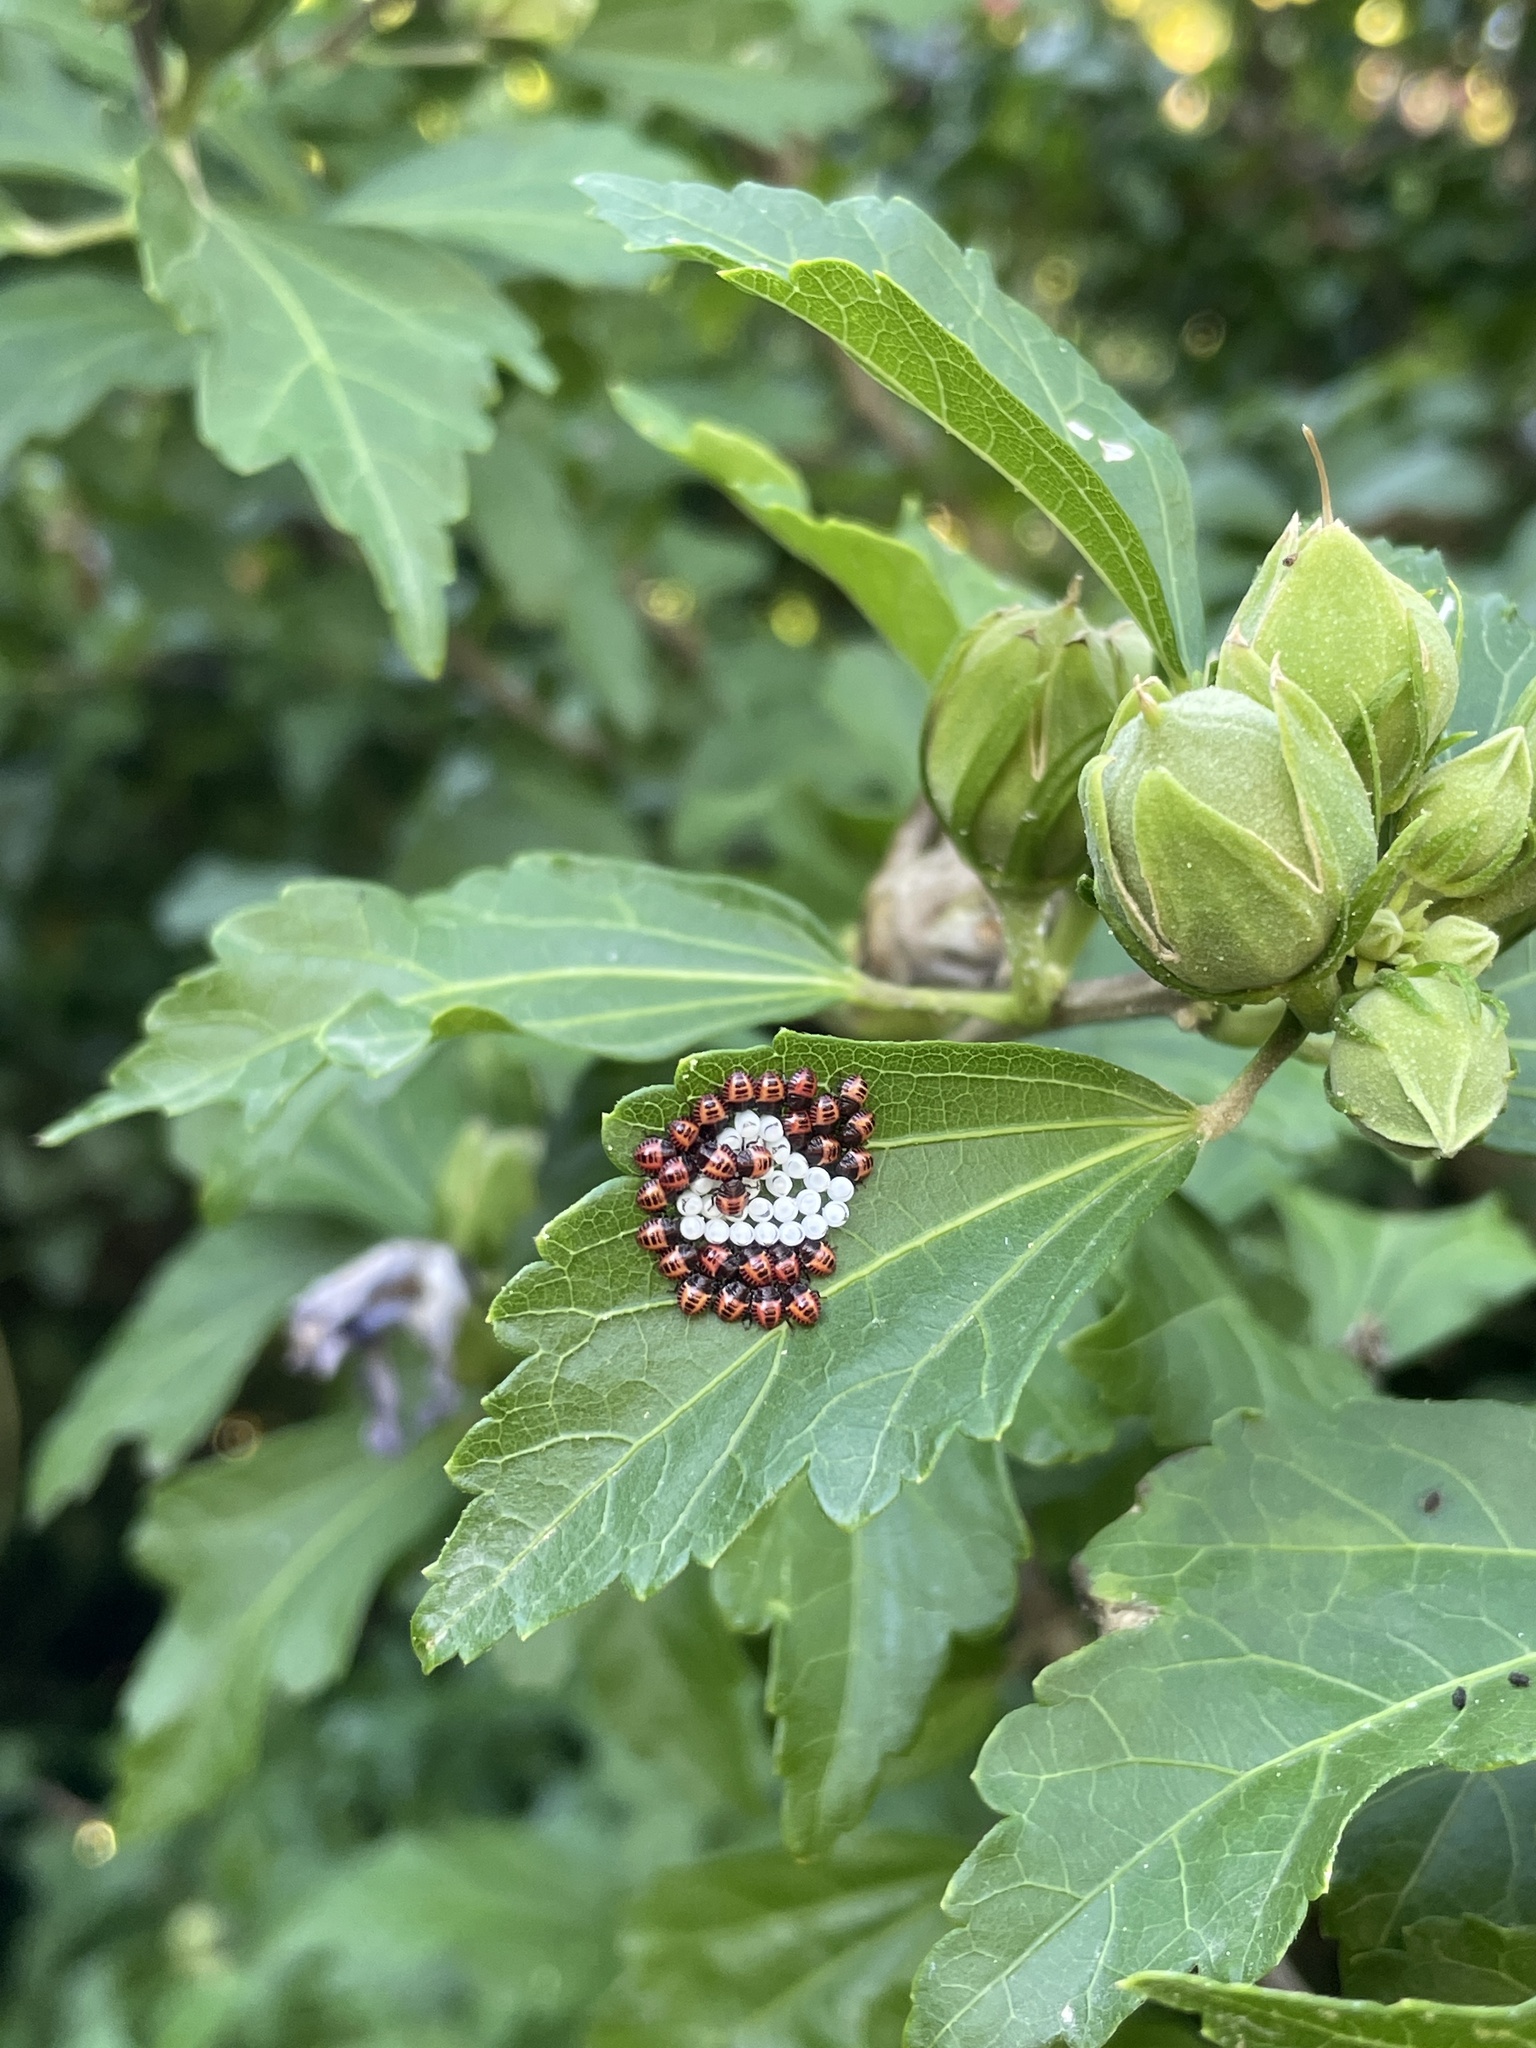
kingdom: Animalia
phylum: Arthropoda
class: Insecta
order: Hemiptera
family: Pentatomidae
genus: Halyomorpha
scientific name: Halyomorpha halys
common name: Brown marmorated stink bug
